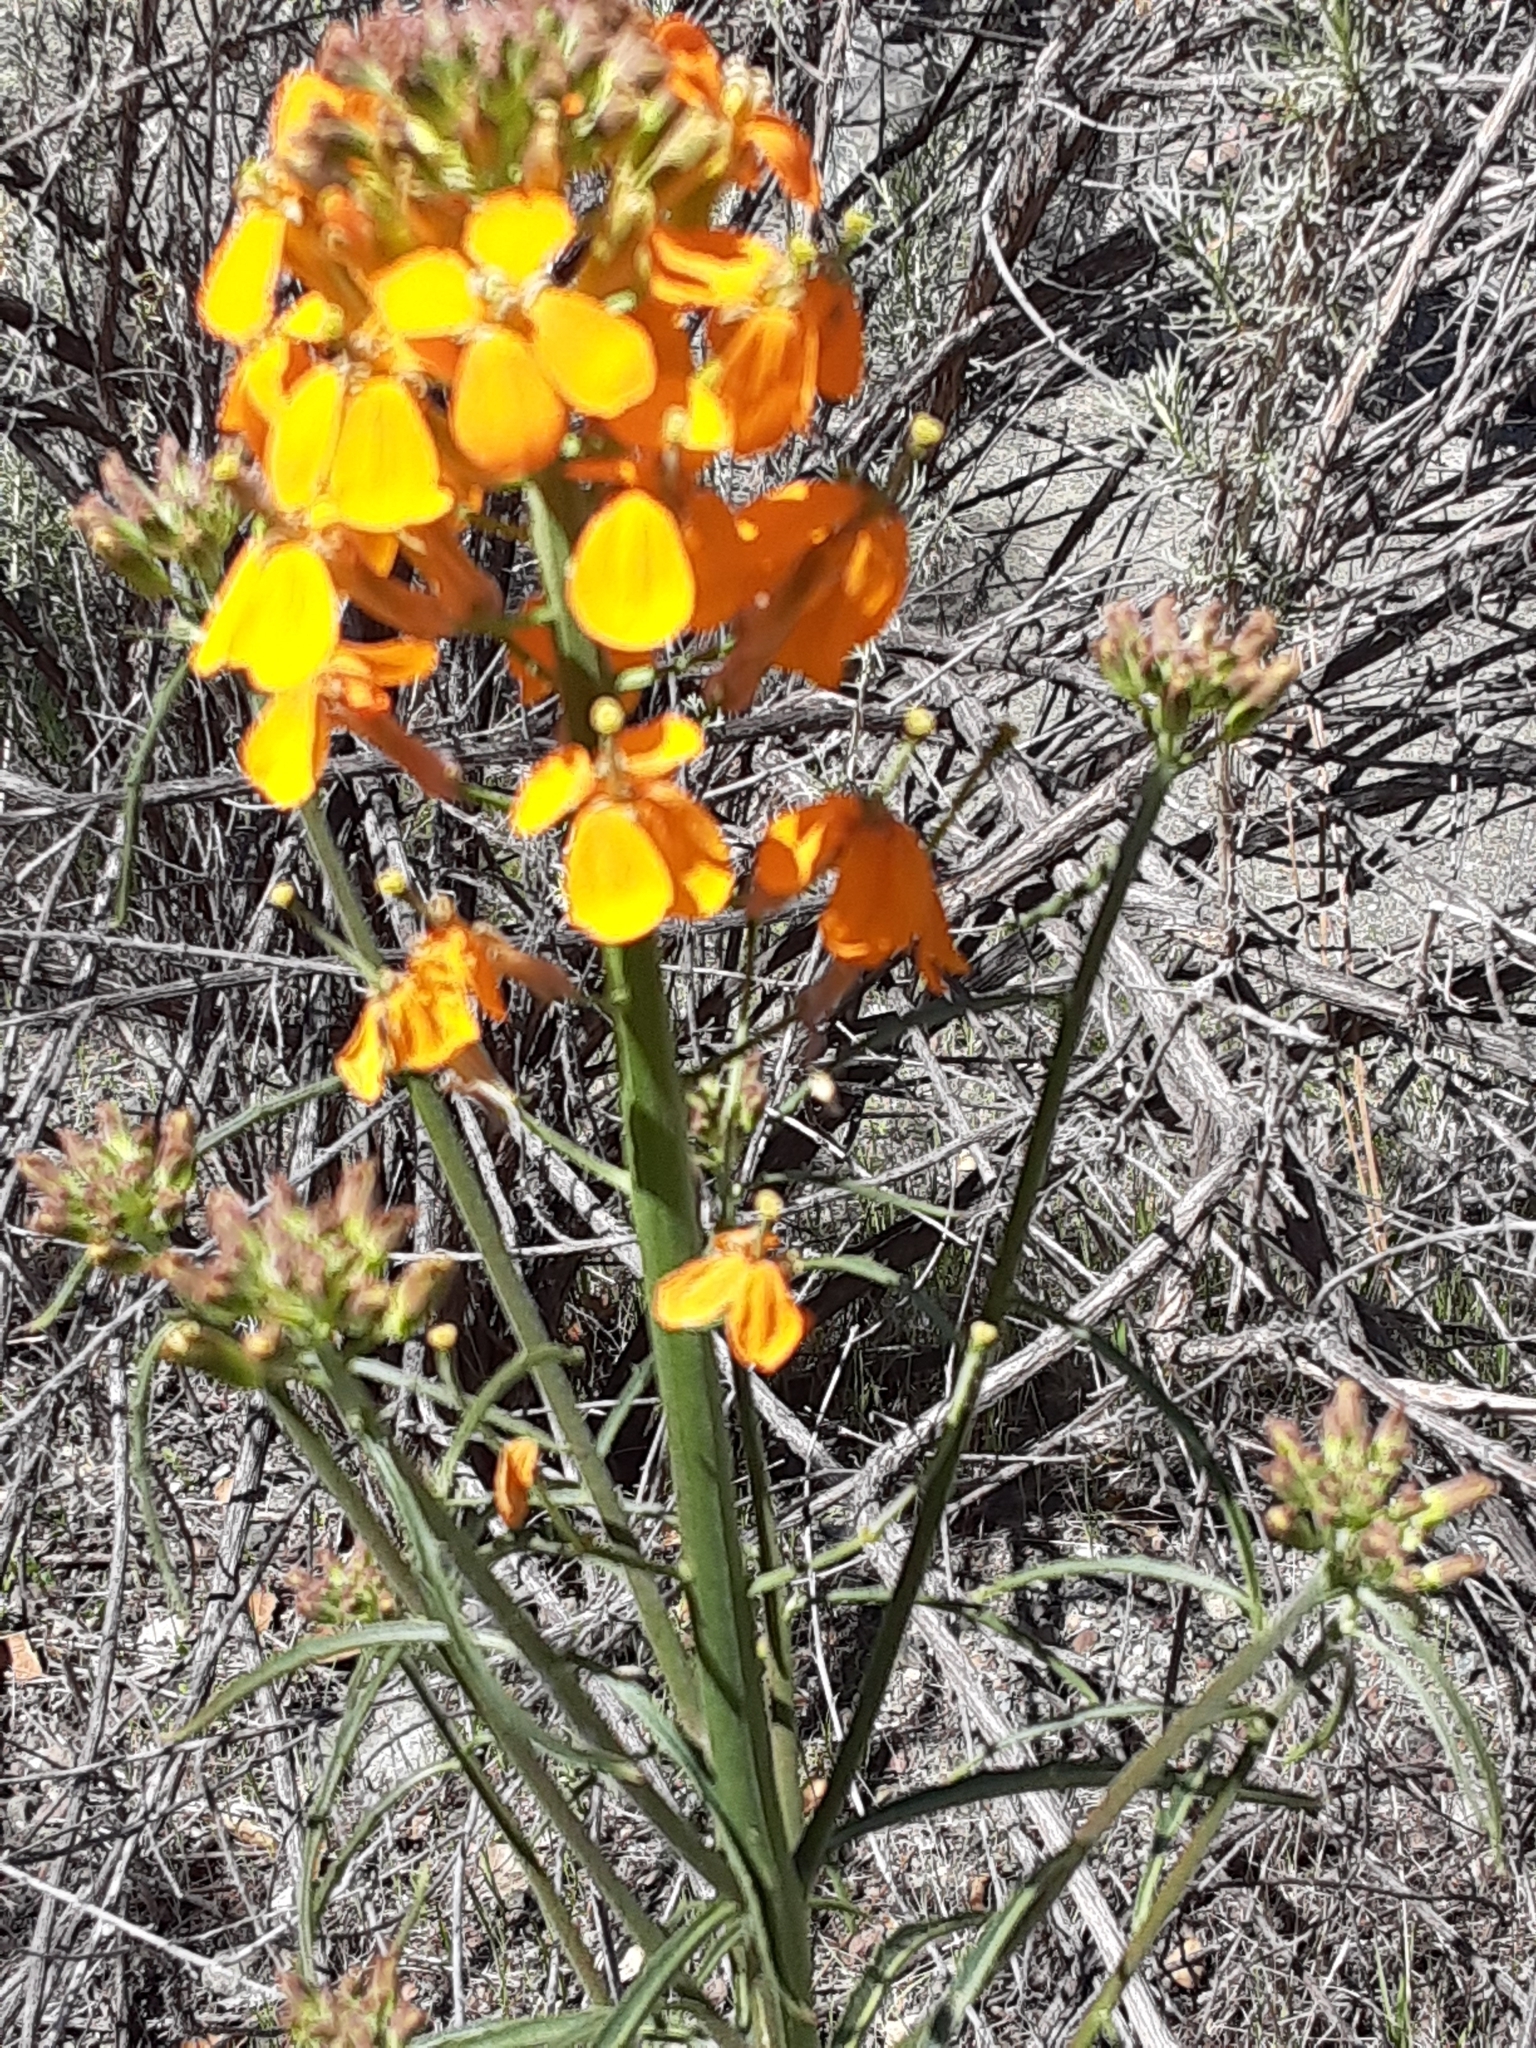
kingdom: Plantae
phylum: Tracheophyta
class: Magnoliopsida
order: Brassicales
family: Brassicaceae
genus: Erysimum
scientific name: Erysimum capitatum
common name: Western wallflower
